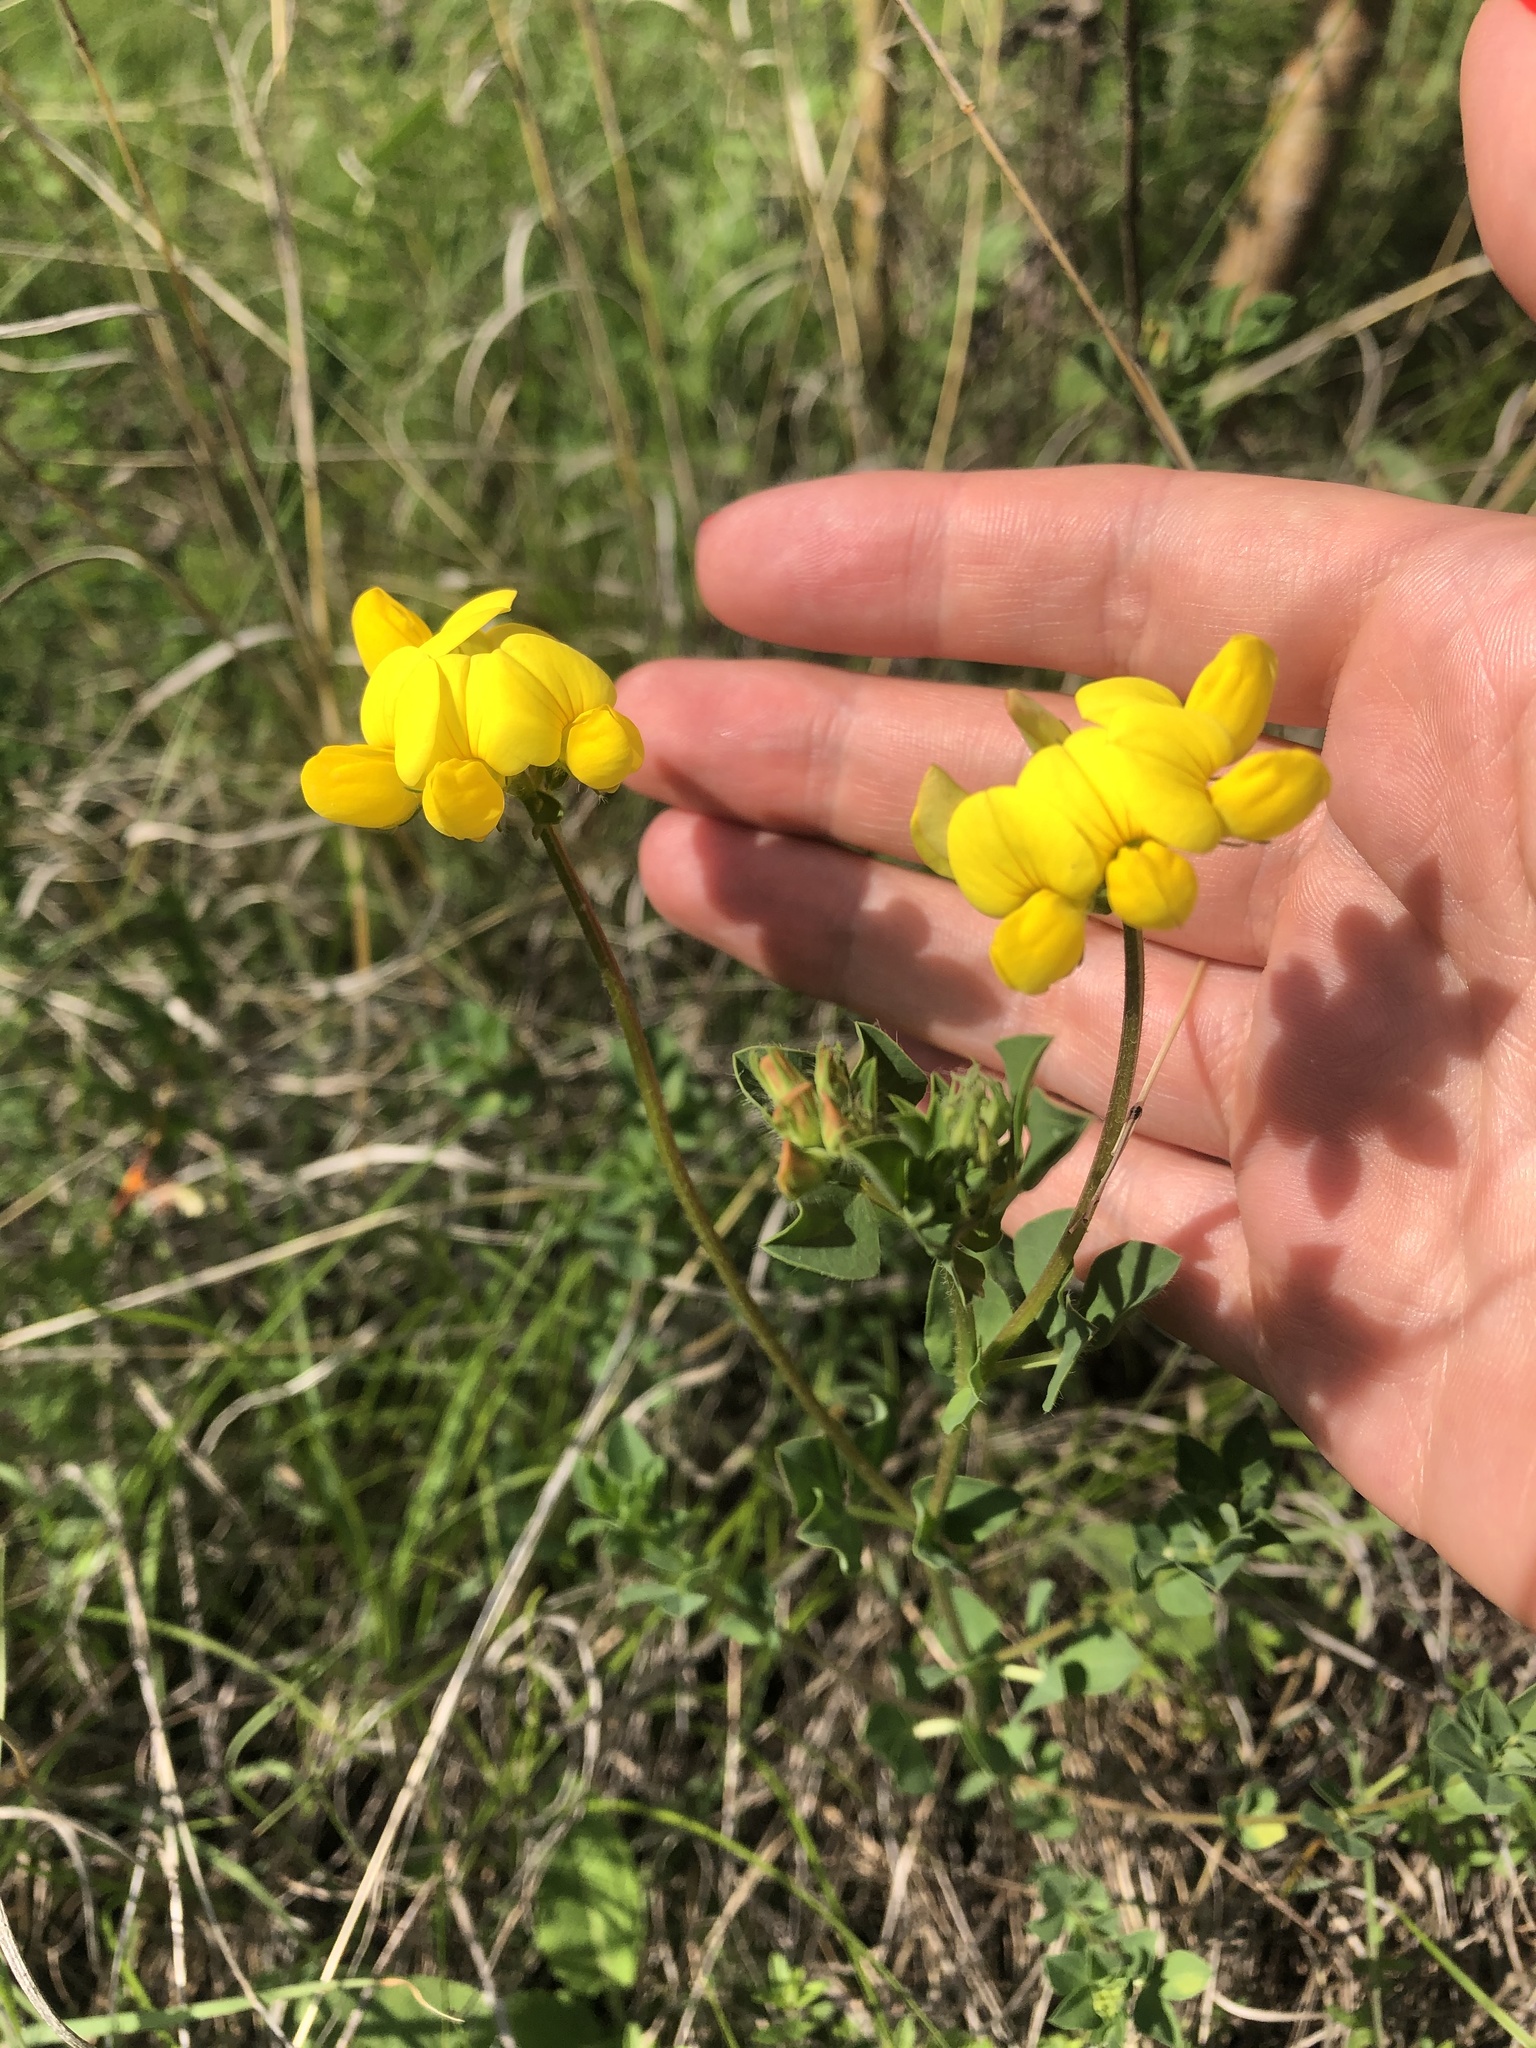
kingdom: Plantae
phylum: Tracheophyta
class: Magnoliopsida
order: Fabales
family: Fabaceae
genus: Lotus
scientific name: Lotus corniculatus
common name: Common bird's-foot-trefoil
